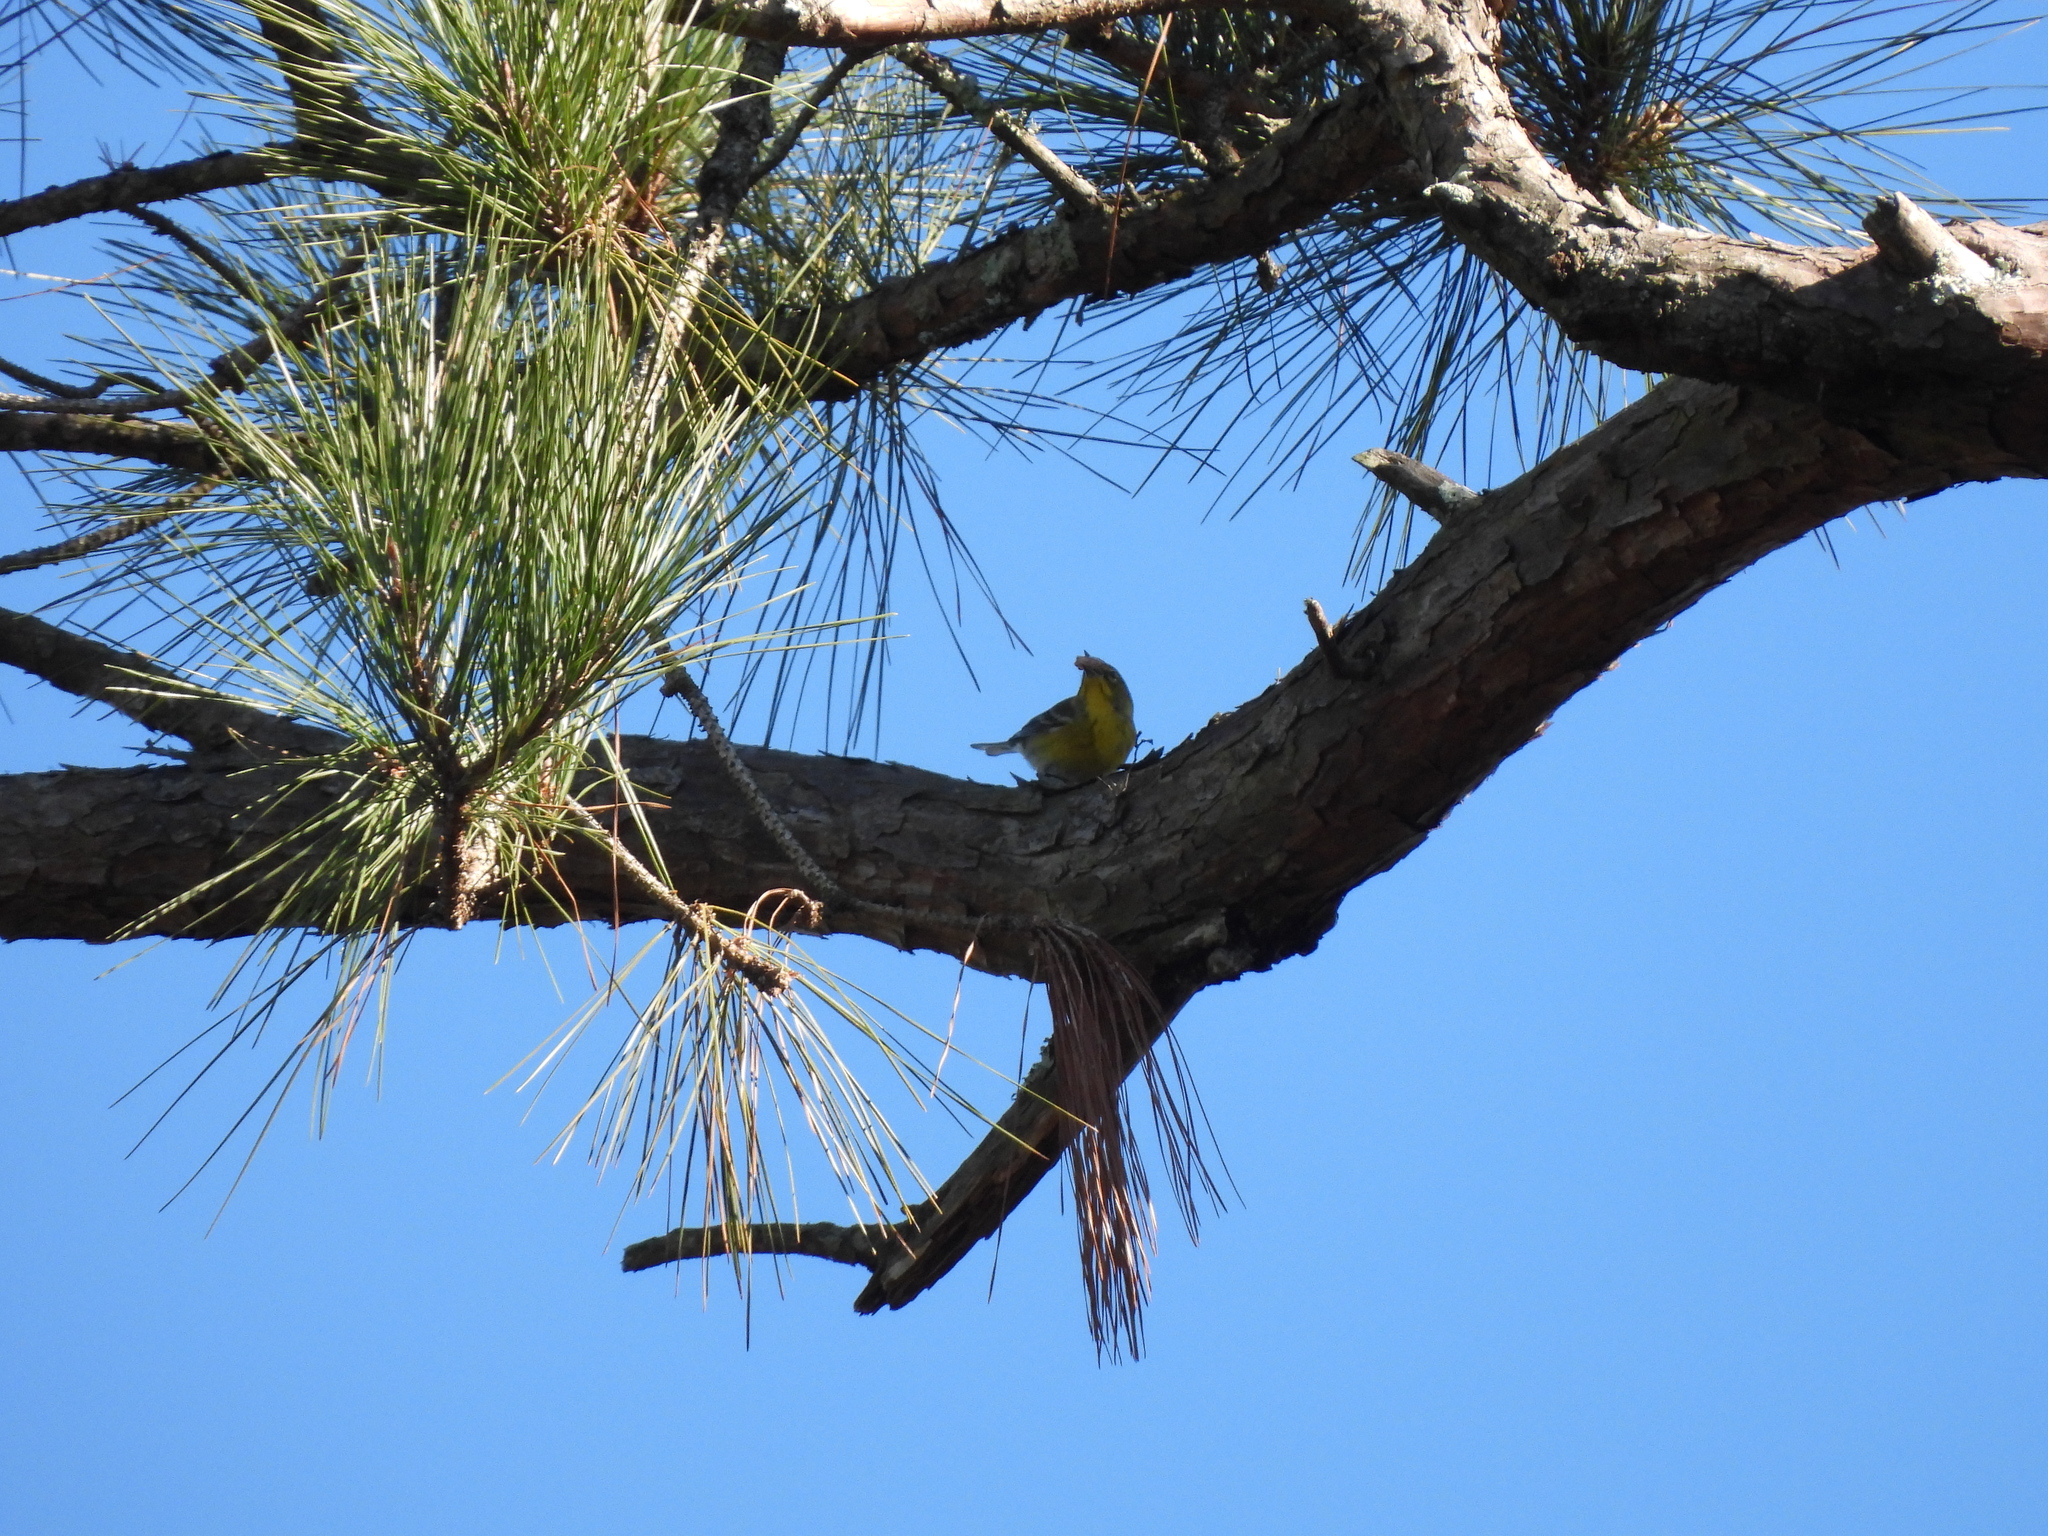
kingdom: Animalia
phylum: Chordata
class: Aves
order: Passeriformes
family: Parulidae
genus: Setophaga
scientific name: Setophaga pinus
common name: Pine warbler
